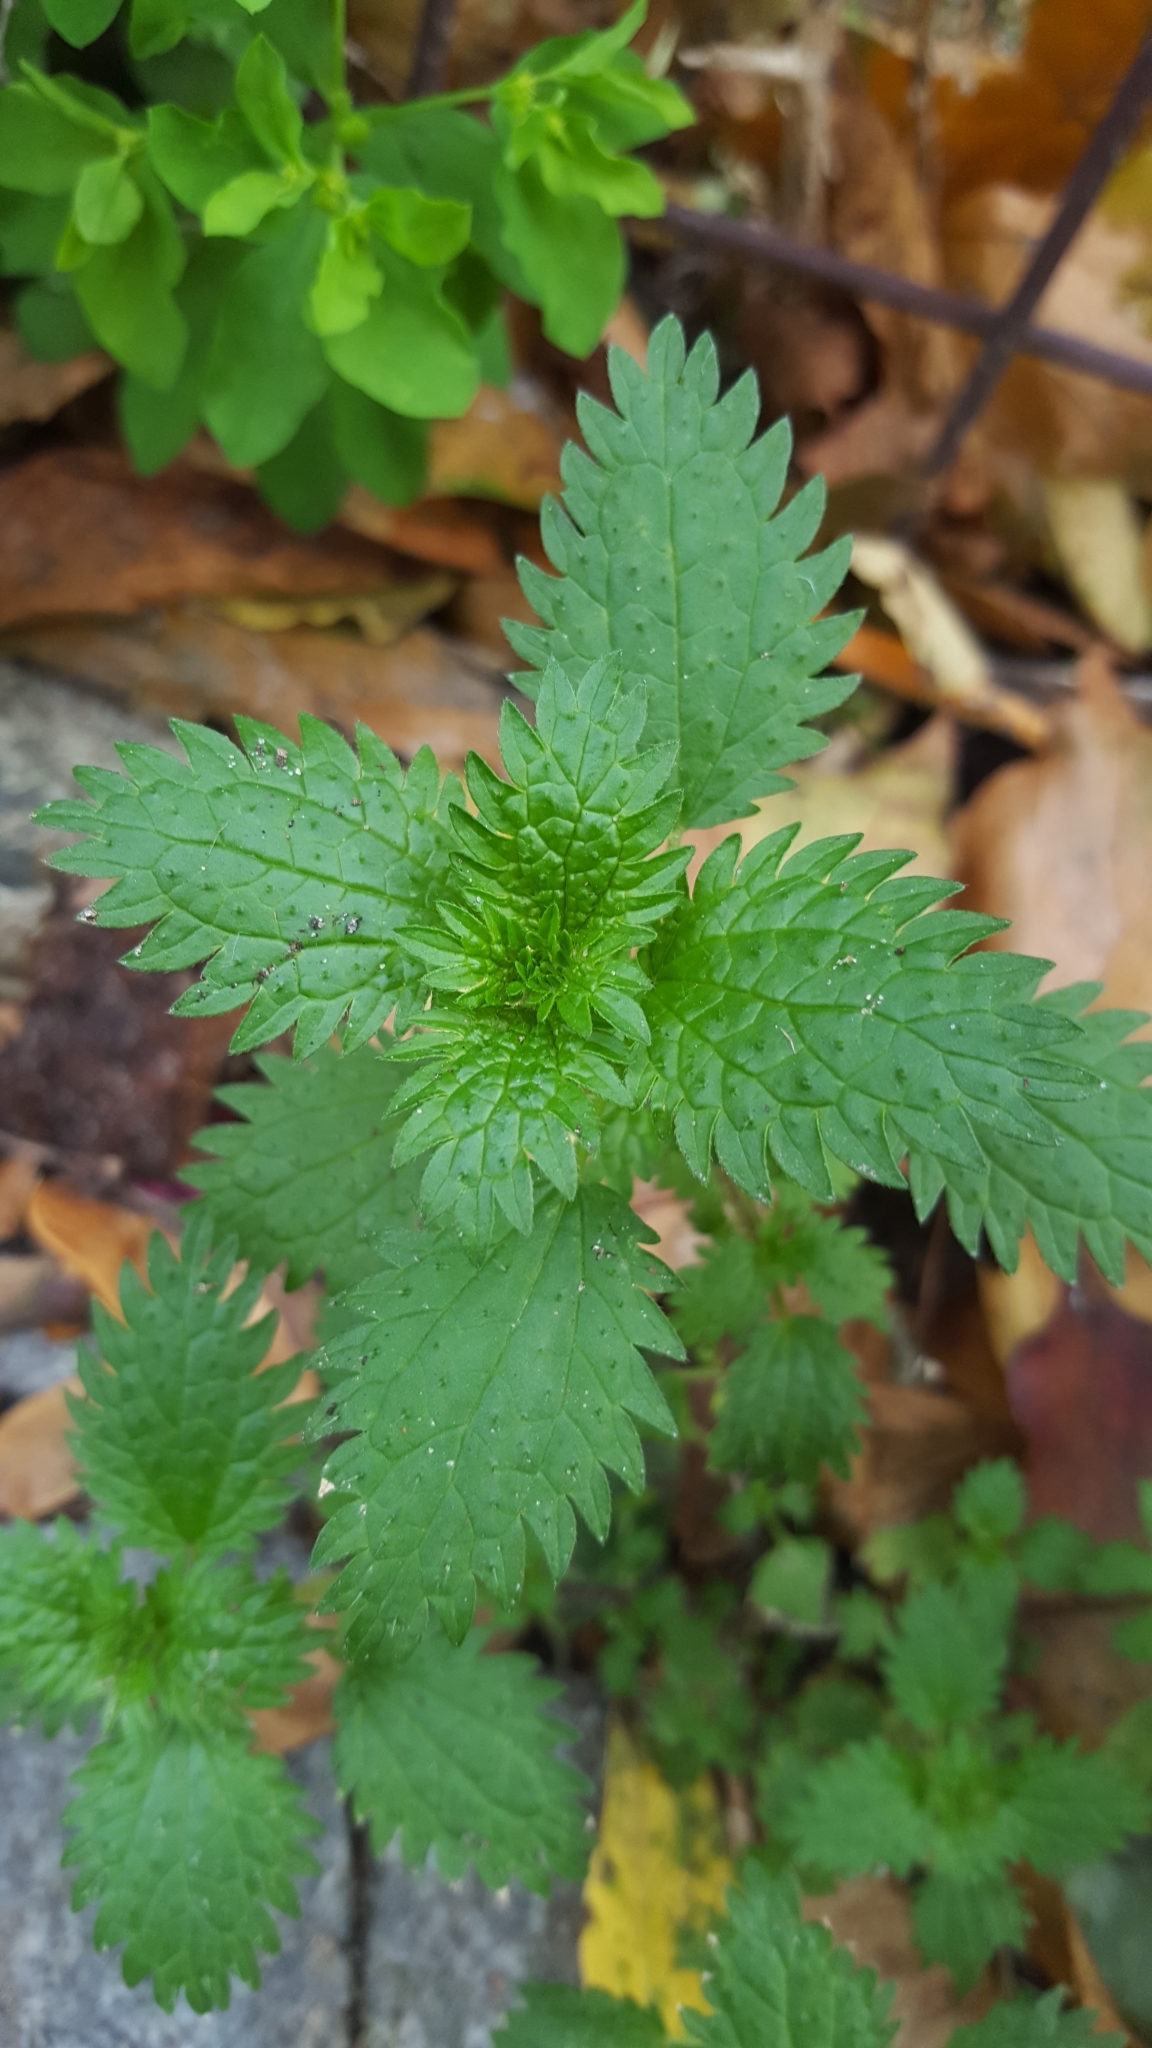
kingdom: Plantae
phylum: Tracheophyta
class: Magnoliopsida
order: Rosales
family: Urticaceae
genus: Urtica
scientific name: Urtica urens
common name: Dwarf nettle
